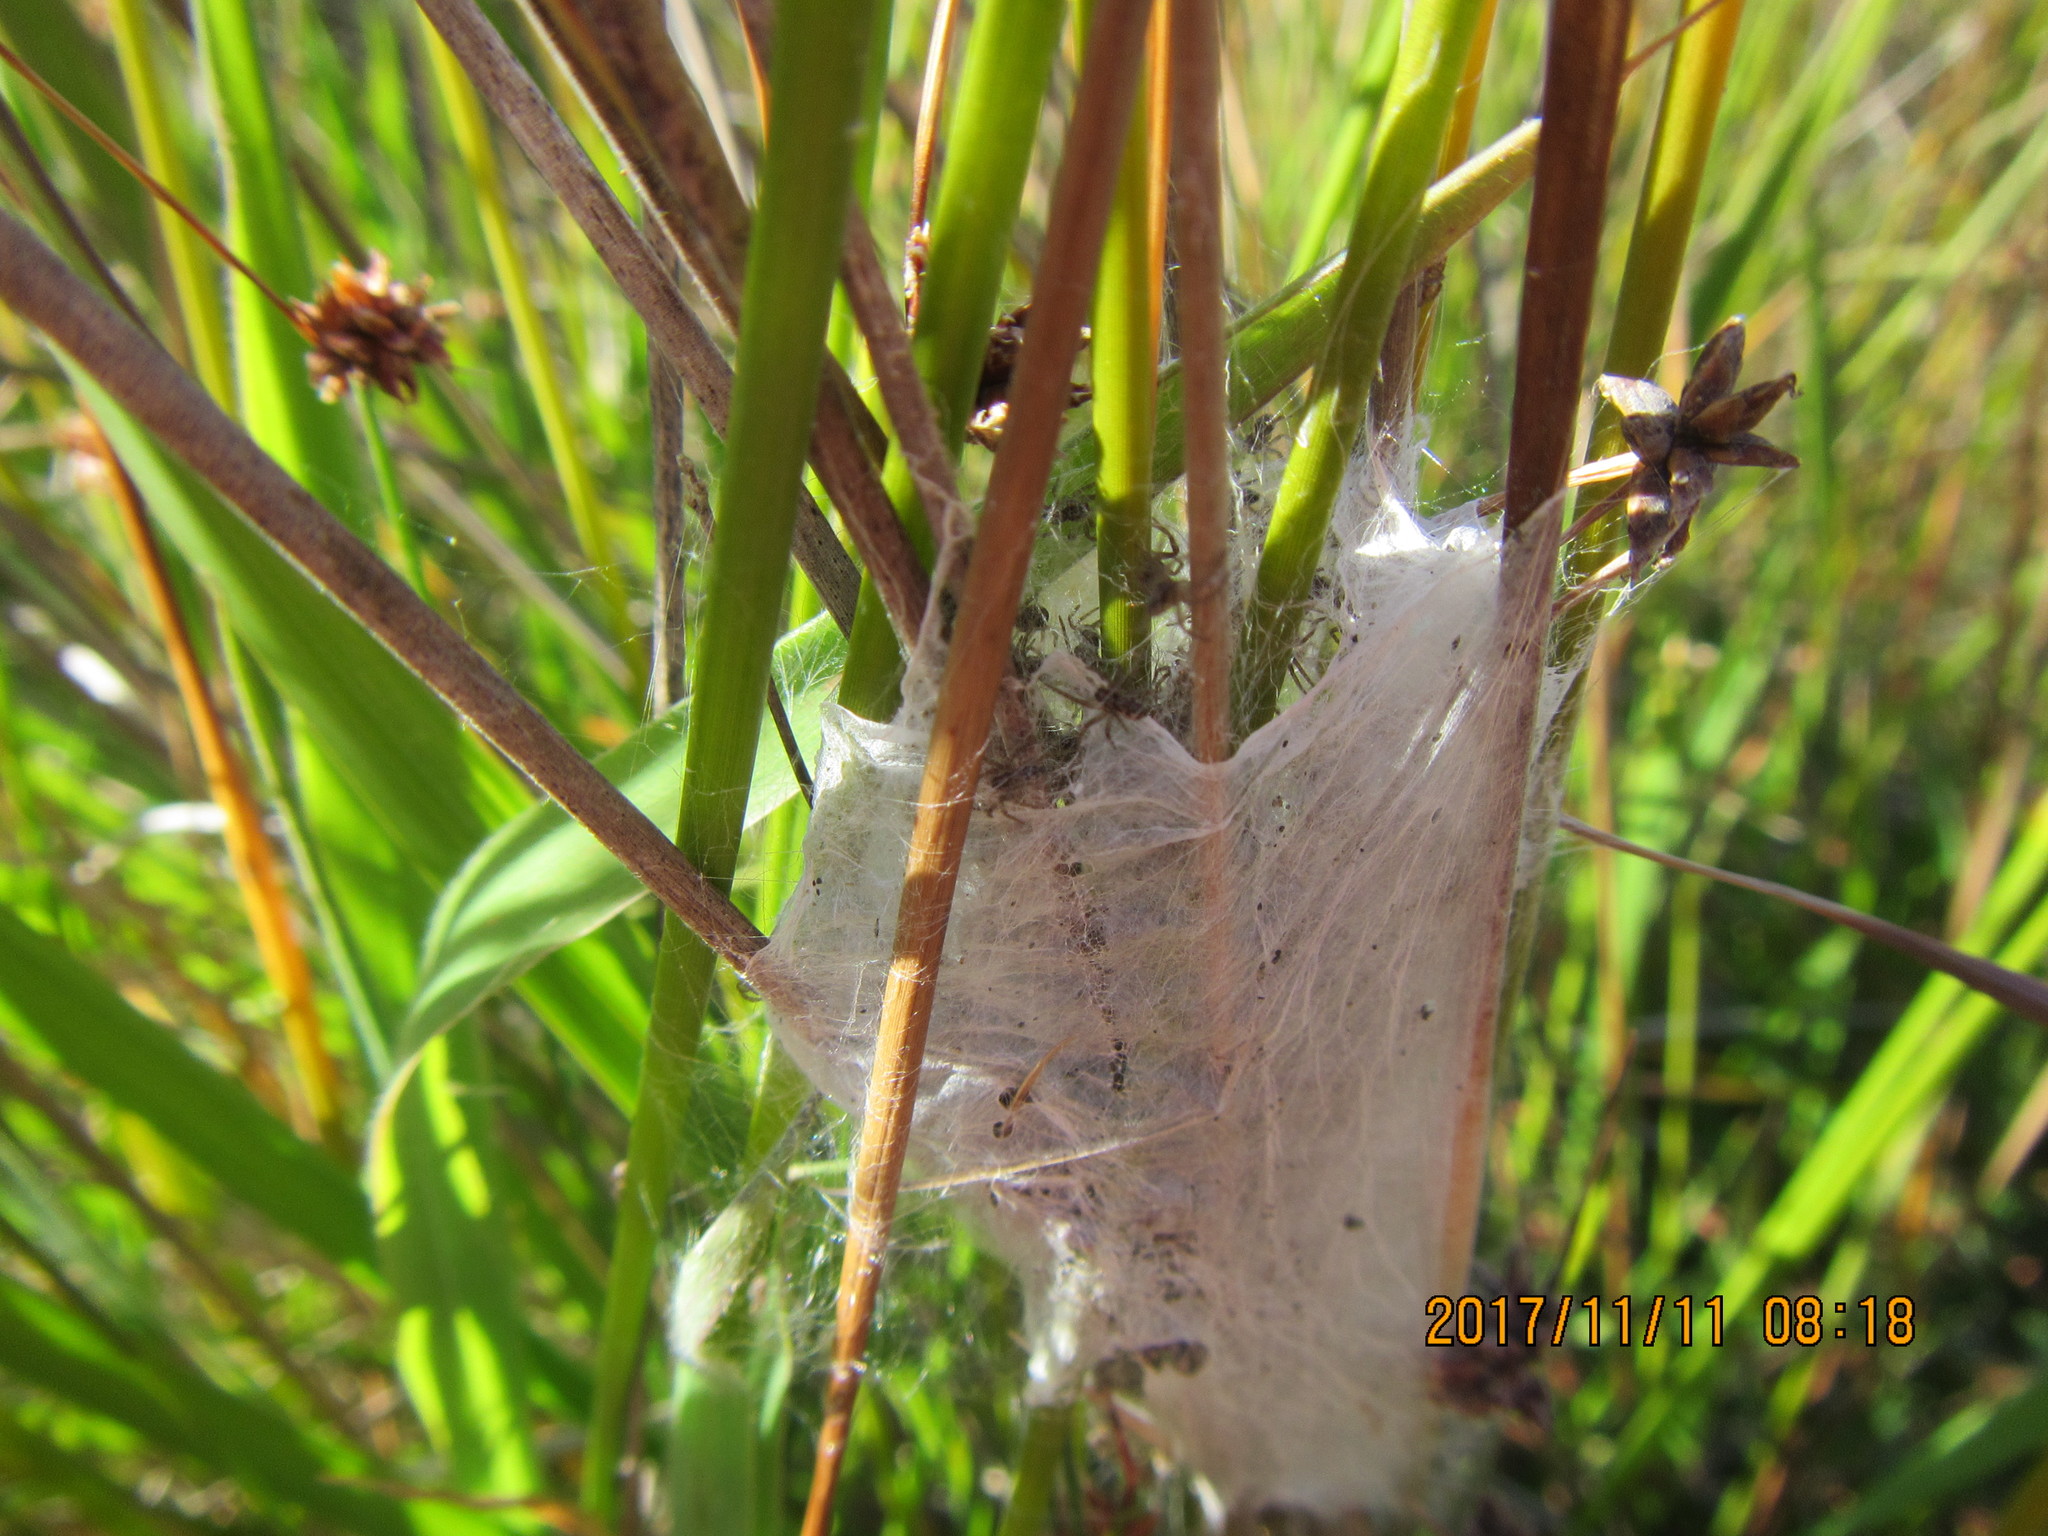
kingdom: Animalia
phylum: Arthropoda
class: Arachnida
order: Araneae
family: Pisauridae
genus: Dolomedes
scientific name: Dolomedes minor
